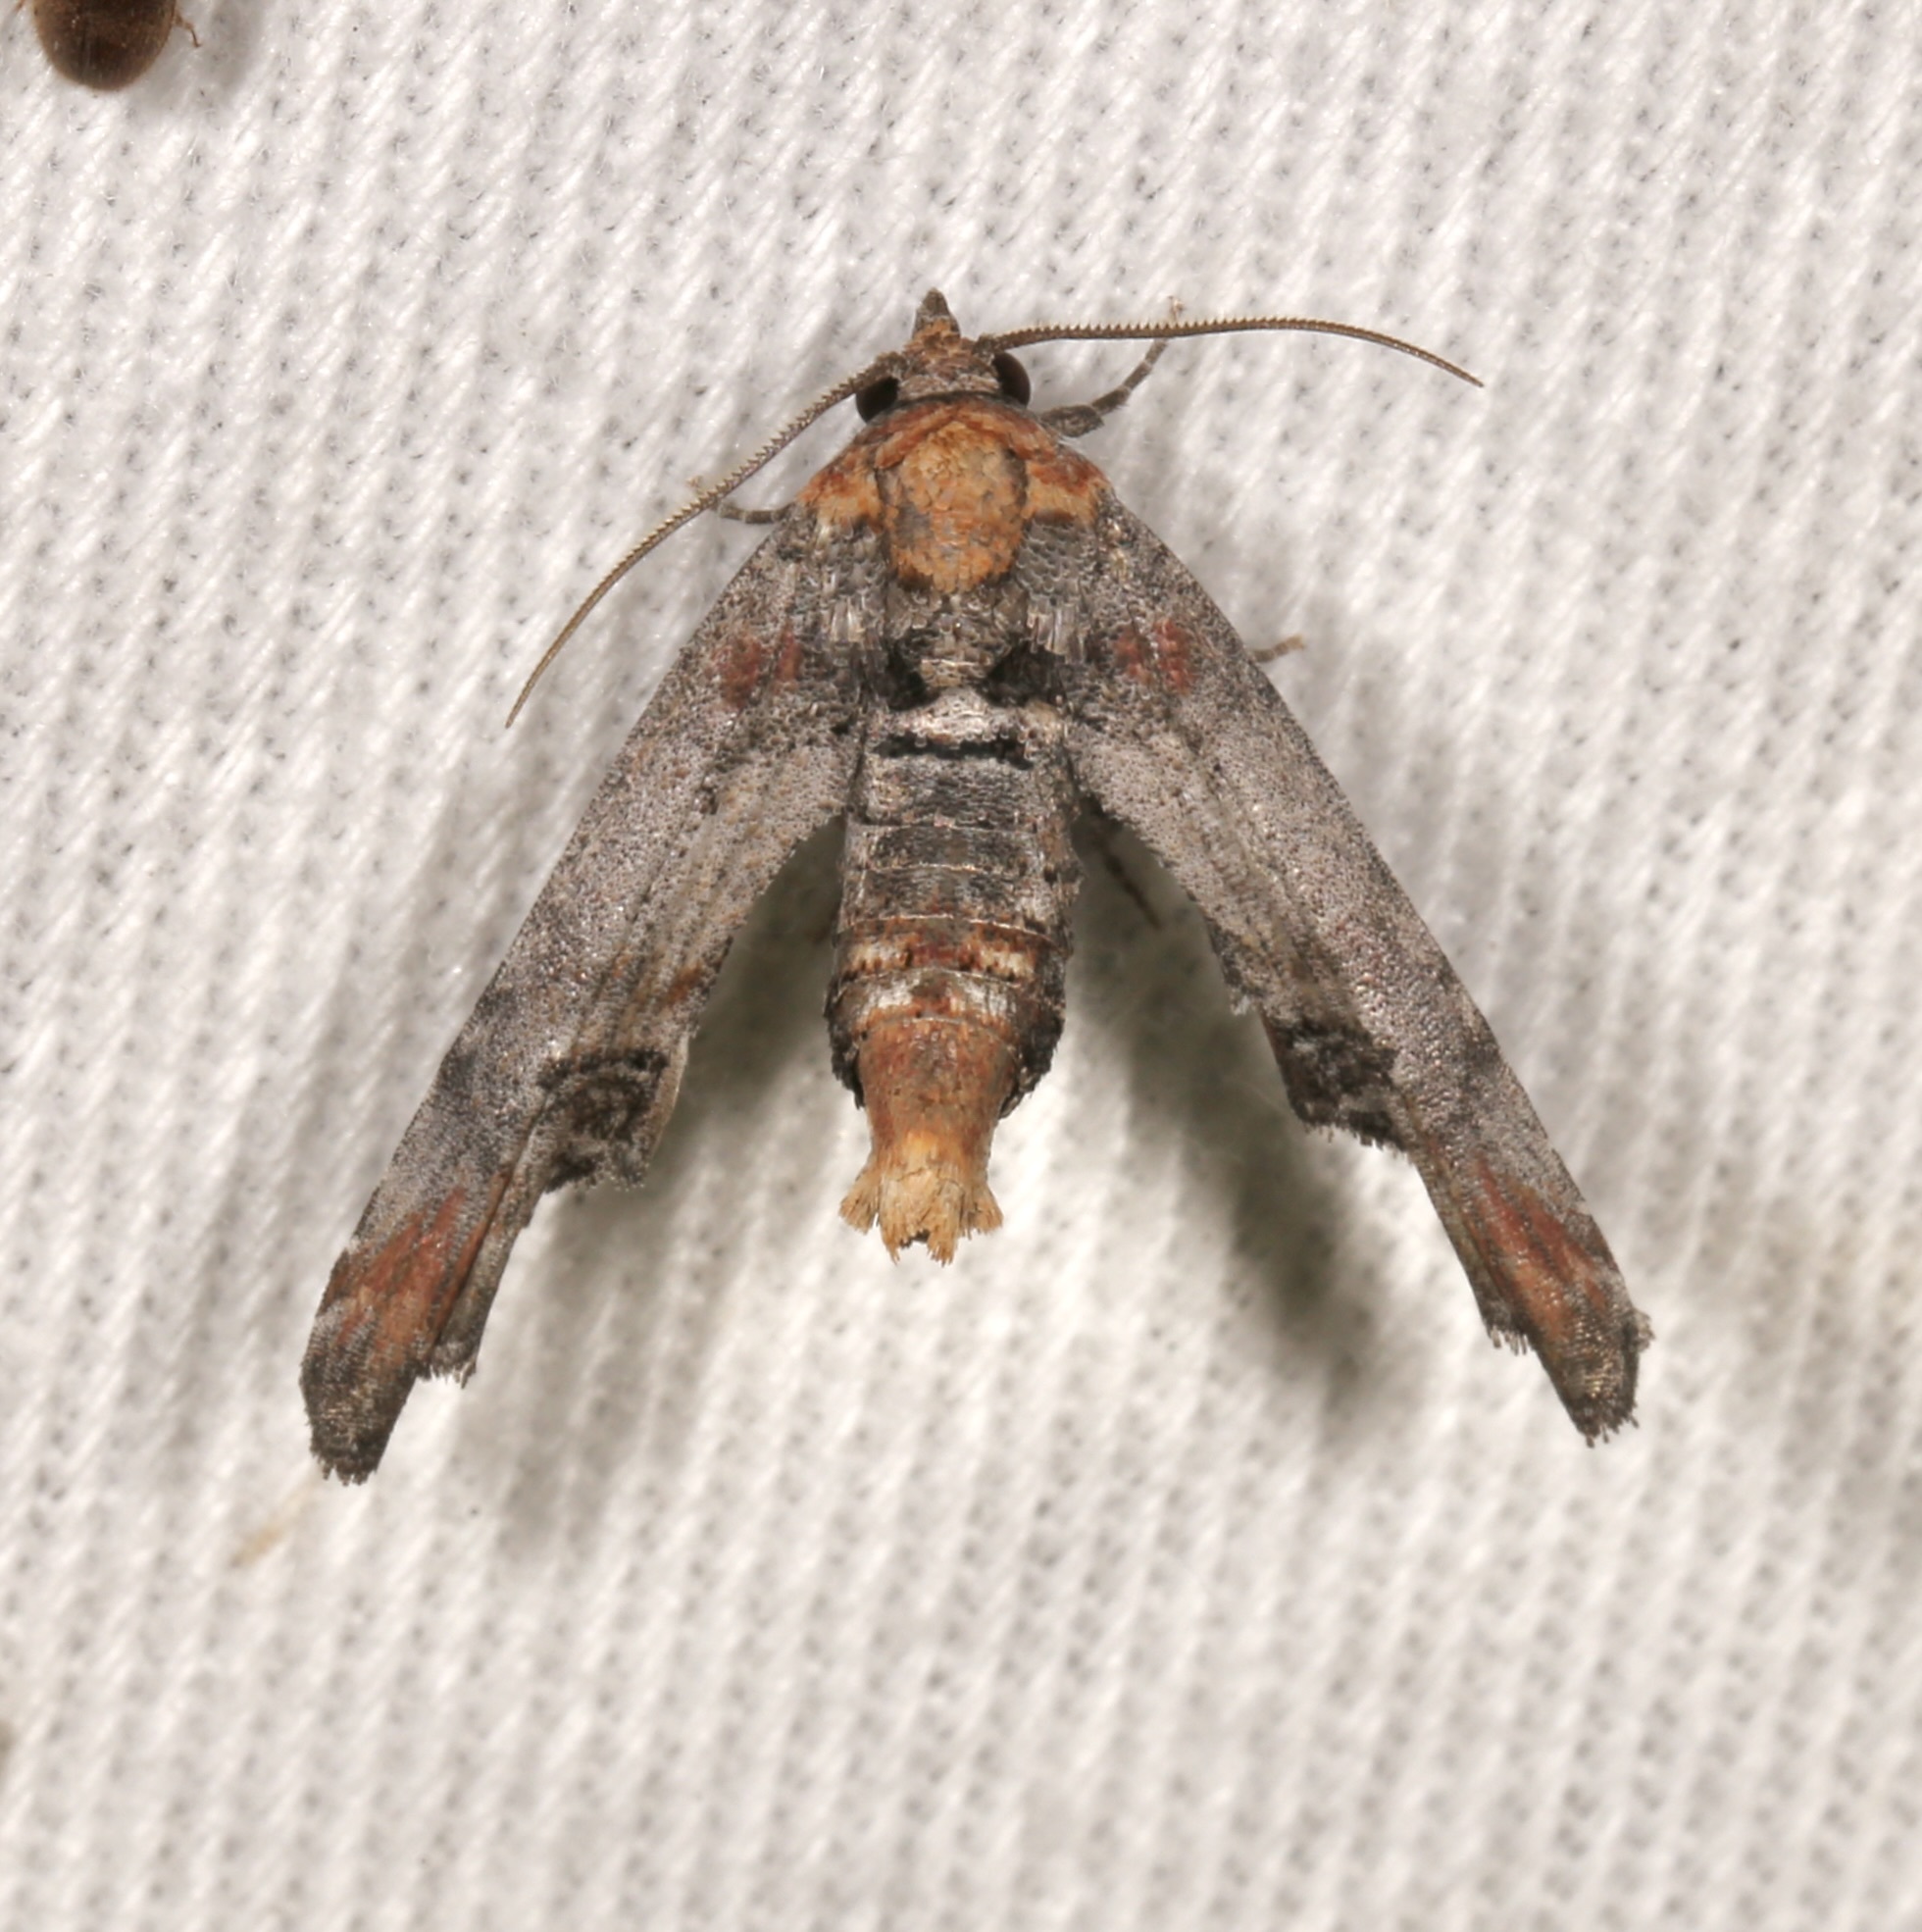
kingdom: Animalia
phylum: Arthropoda
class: Insecta
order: Lepidoptera
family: Euteliidae
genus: Marathyssa
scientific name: Marathyssa inficita
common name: Dark marathyssa moth
